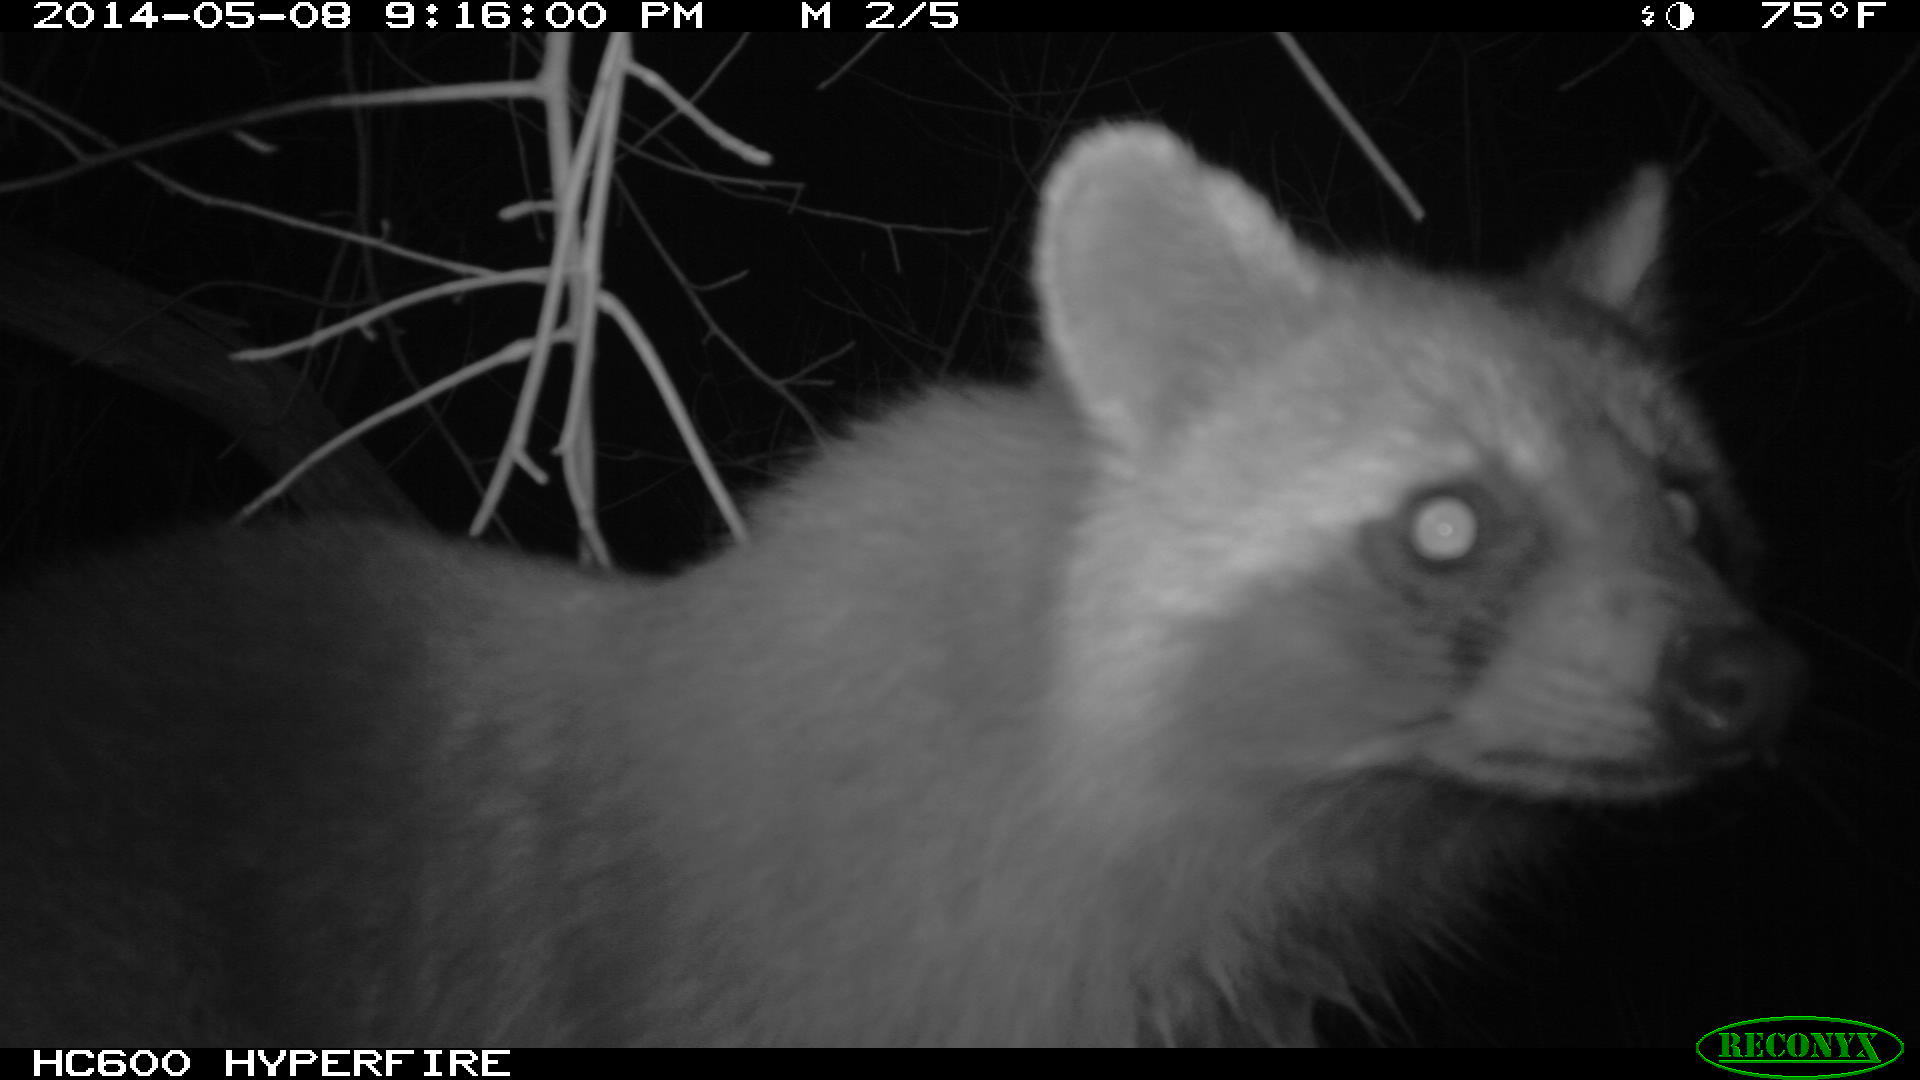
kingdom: Animalia
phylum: Chordata
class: Mammalia
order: Carnivora
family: Procyonidae
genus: Procyon
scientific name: Procyon lotor
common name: Raccoon
